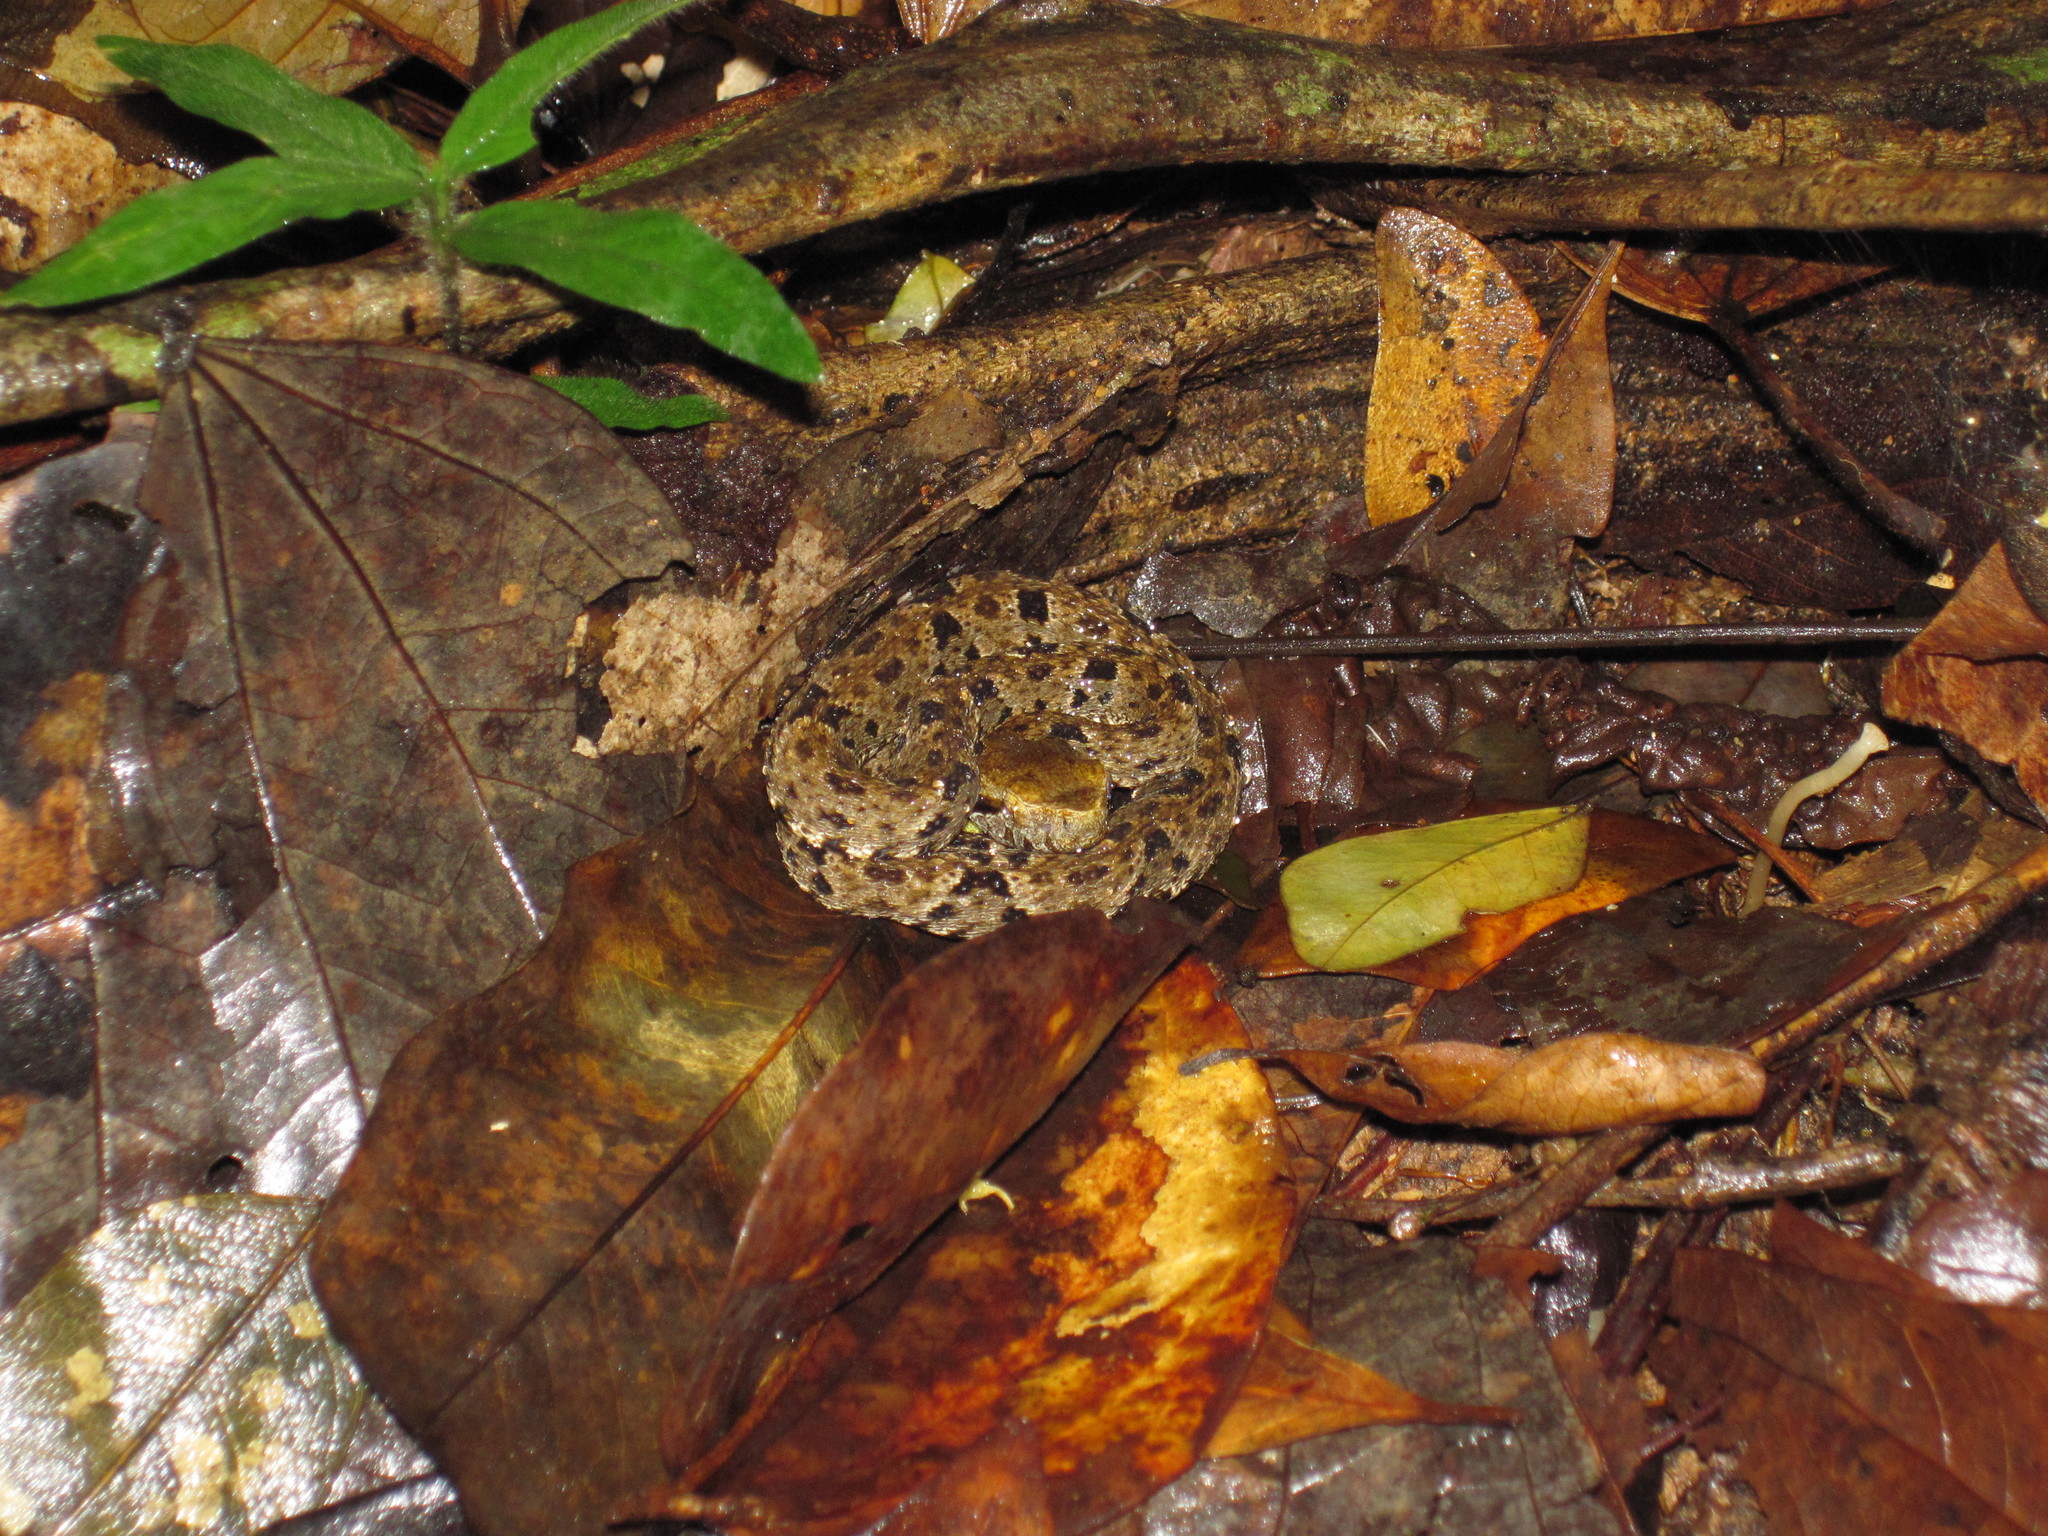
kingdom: Animalia
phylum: Chordata
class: Squamata
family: Viperidae
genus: Bothrops
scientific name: Bothrops atrox
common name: Common lancehead
